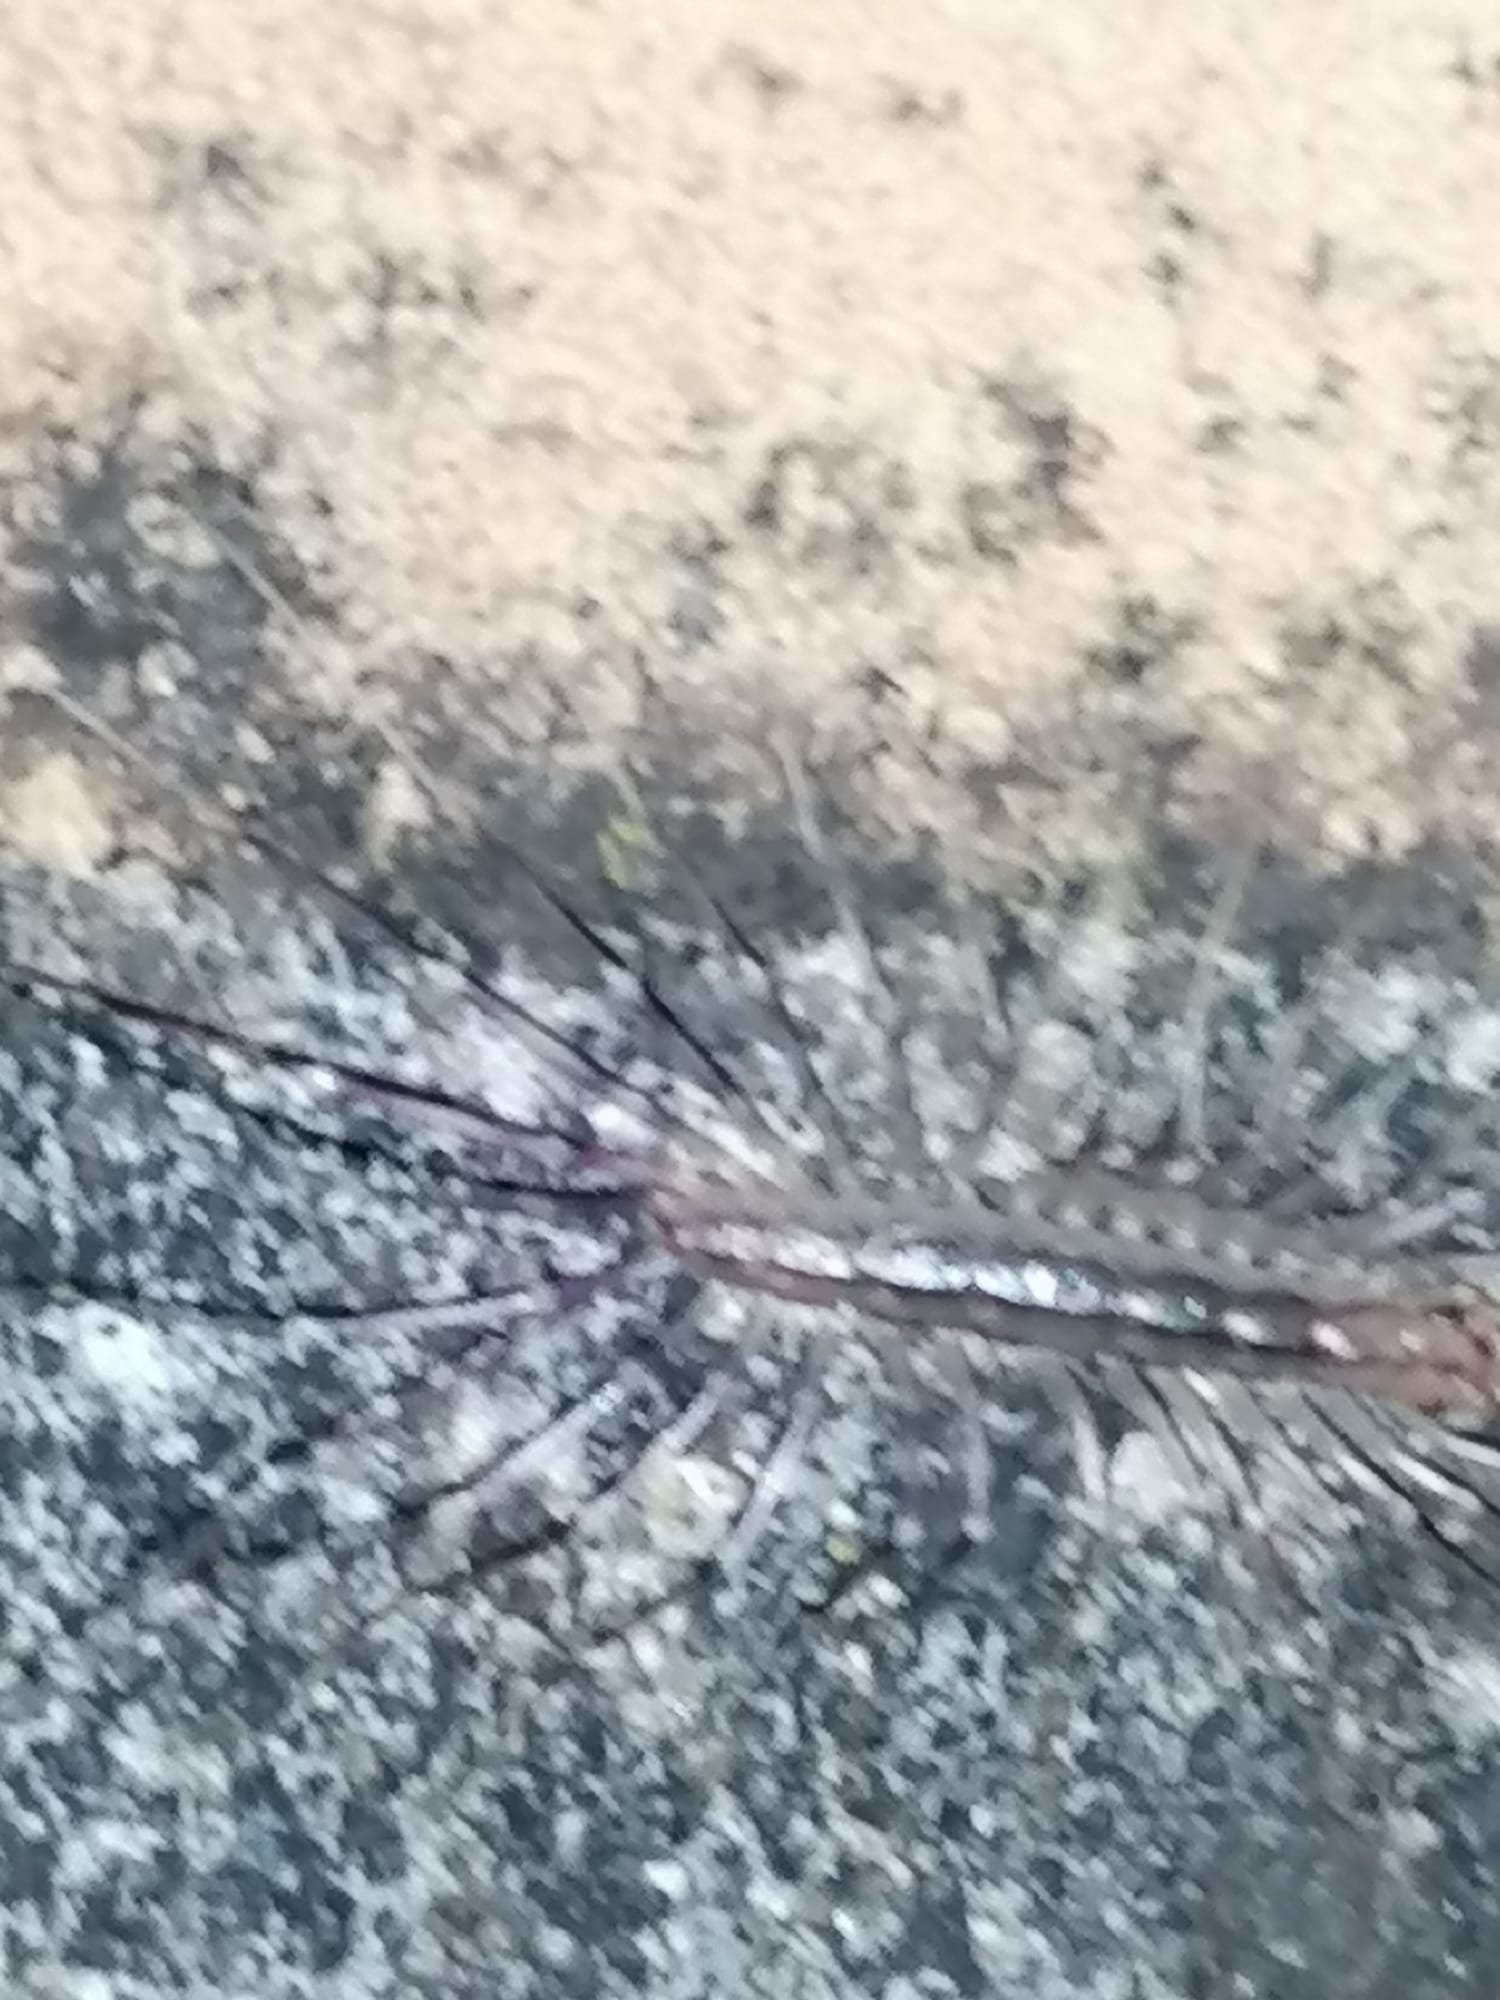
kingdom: Animalia
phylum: Arthropoda
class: Chilopoda
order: Scutigeromorpha
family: Scutigeridae
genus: Scutigera
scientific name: Scutigera coleoptrata
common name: House centipede
